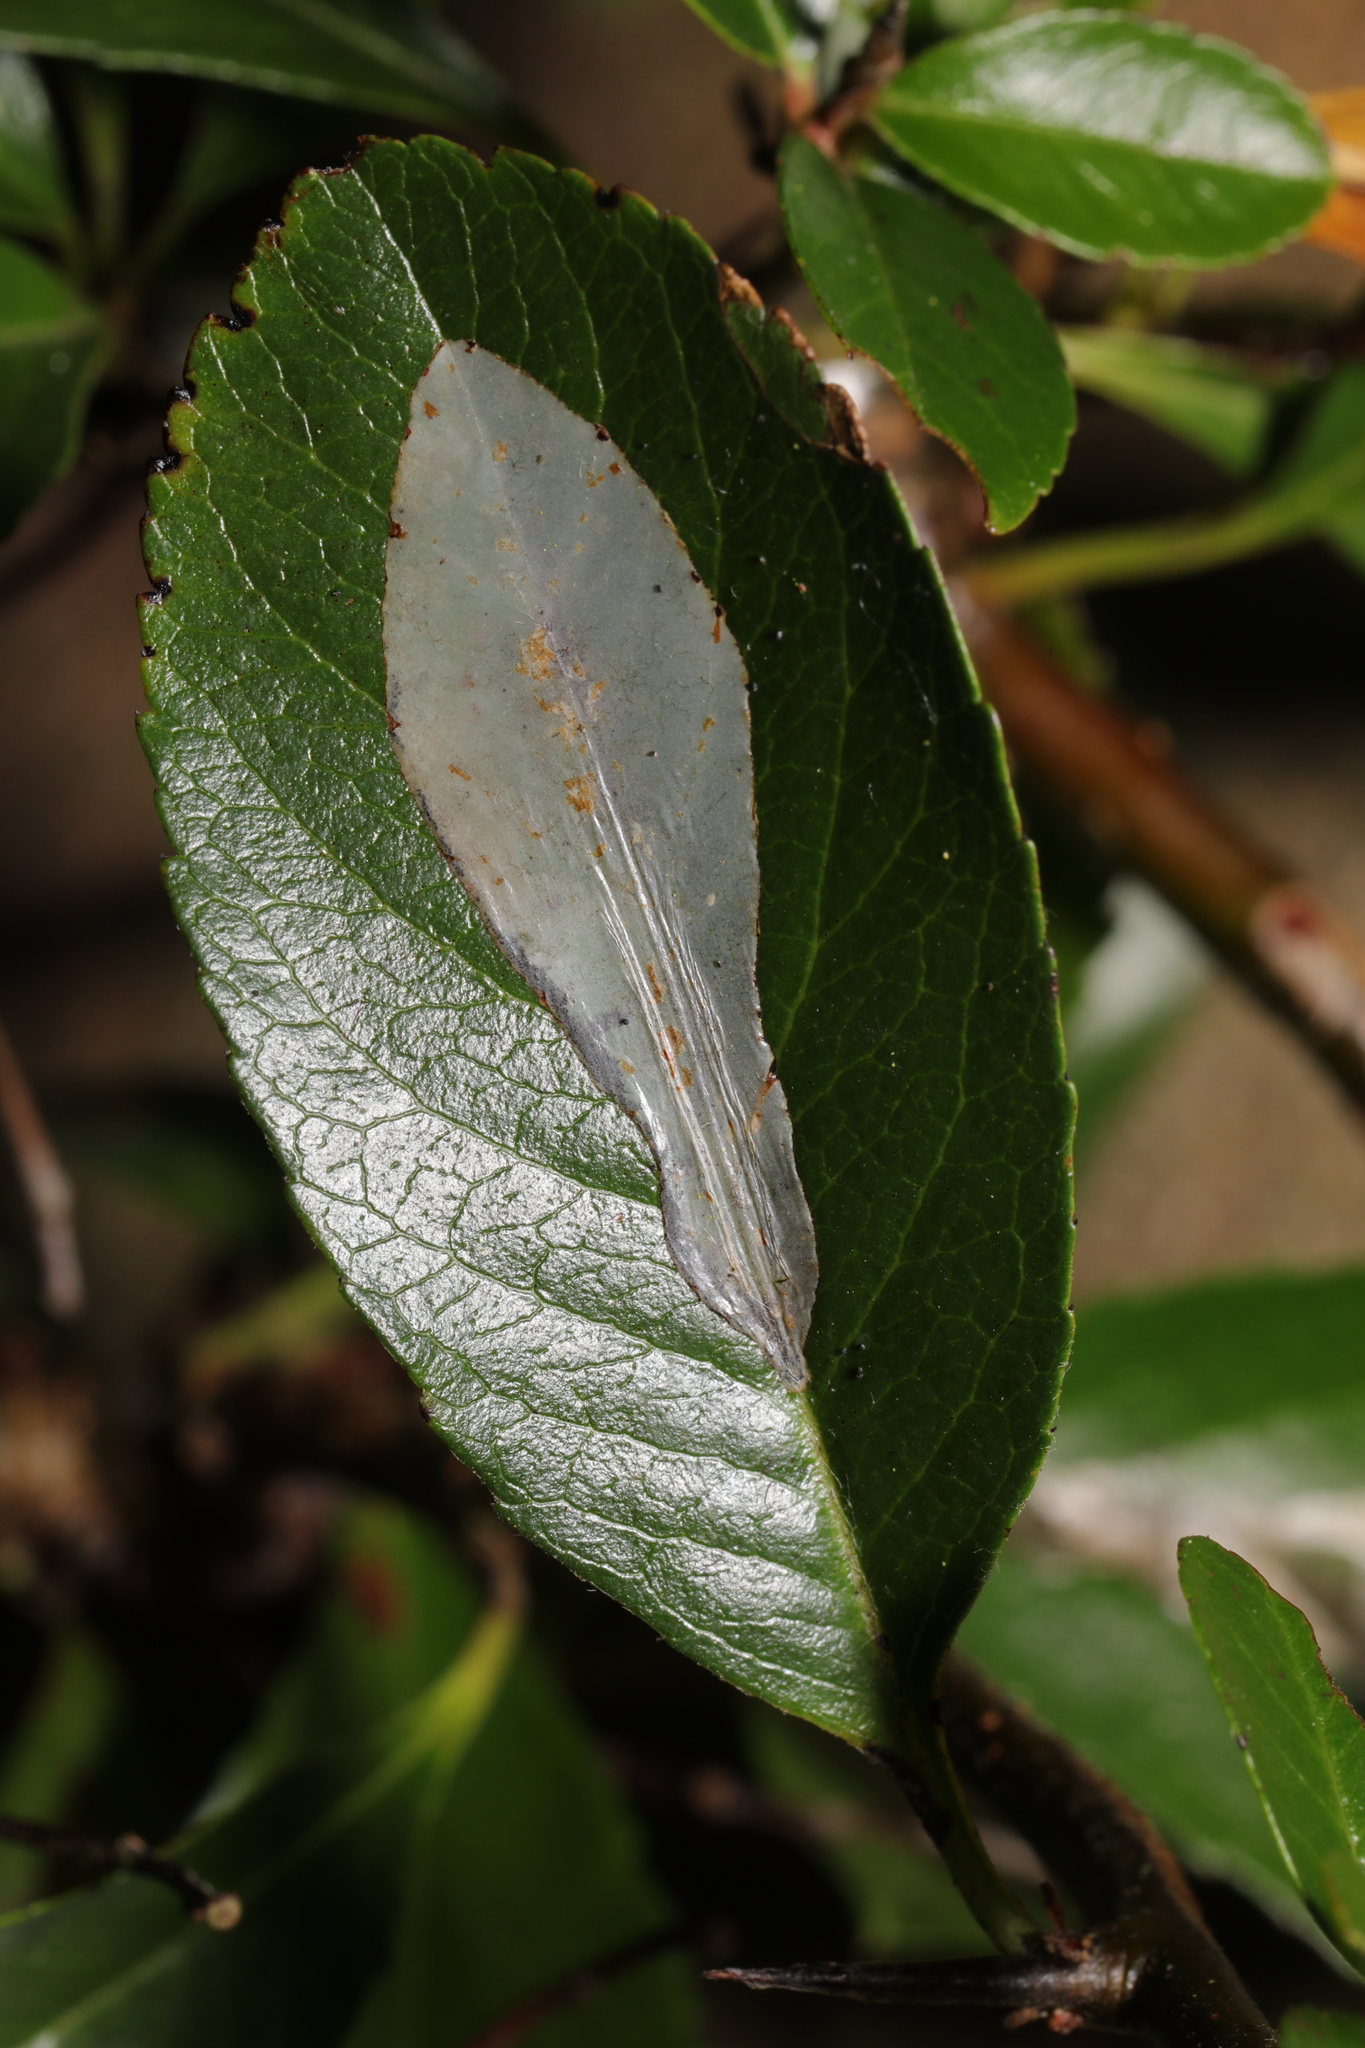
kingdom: Animalia
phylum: Arthropoda
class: Insecta
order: Lepidoptera
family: Gracillariidae
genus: Phyllonorycter
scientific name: Phyllonorycter leucographella
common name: Firethorn leaf-miner
